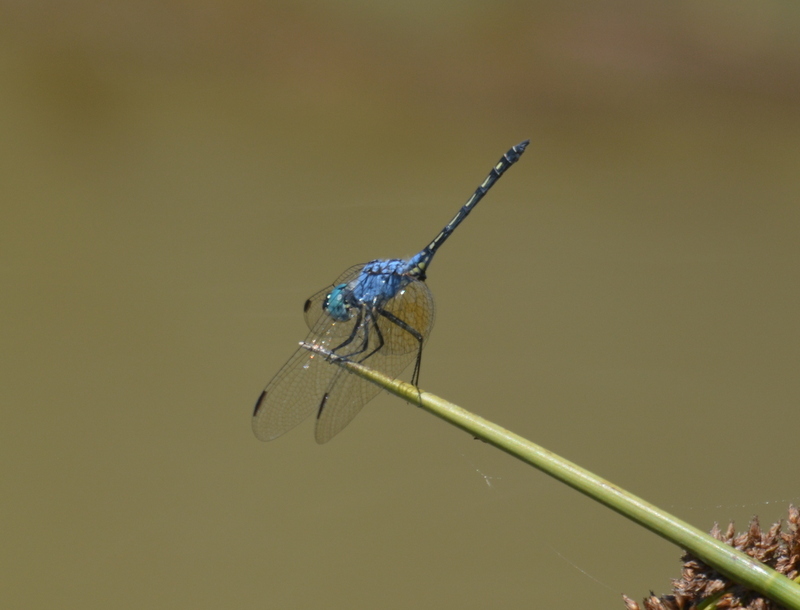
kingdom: Animalia
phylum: Arthropoda
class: Insecta
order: Odonata
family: Libellulidae
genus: Trithemis
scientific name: Trithemis stictica
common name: Jaunty dropwing
